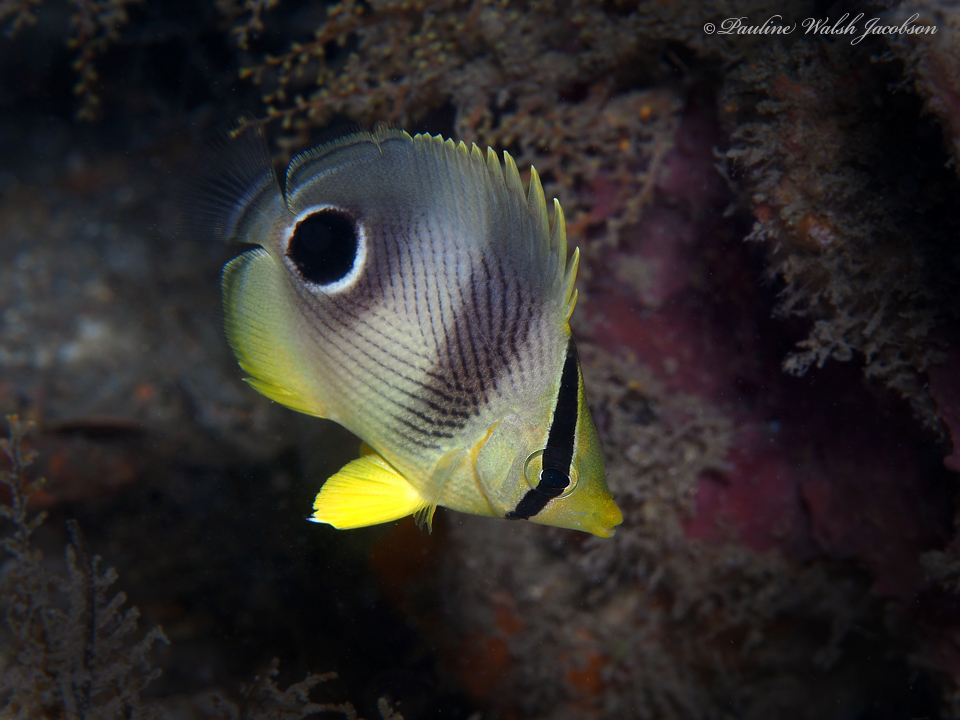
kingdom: Animalia
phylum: Chordata
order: Perciformes
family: Chaetodontidae
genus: Chaetodon
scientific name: Chaetodon capistratus
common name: Kete
